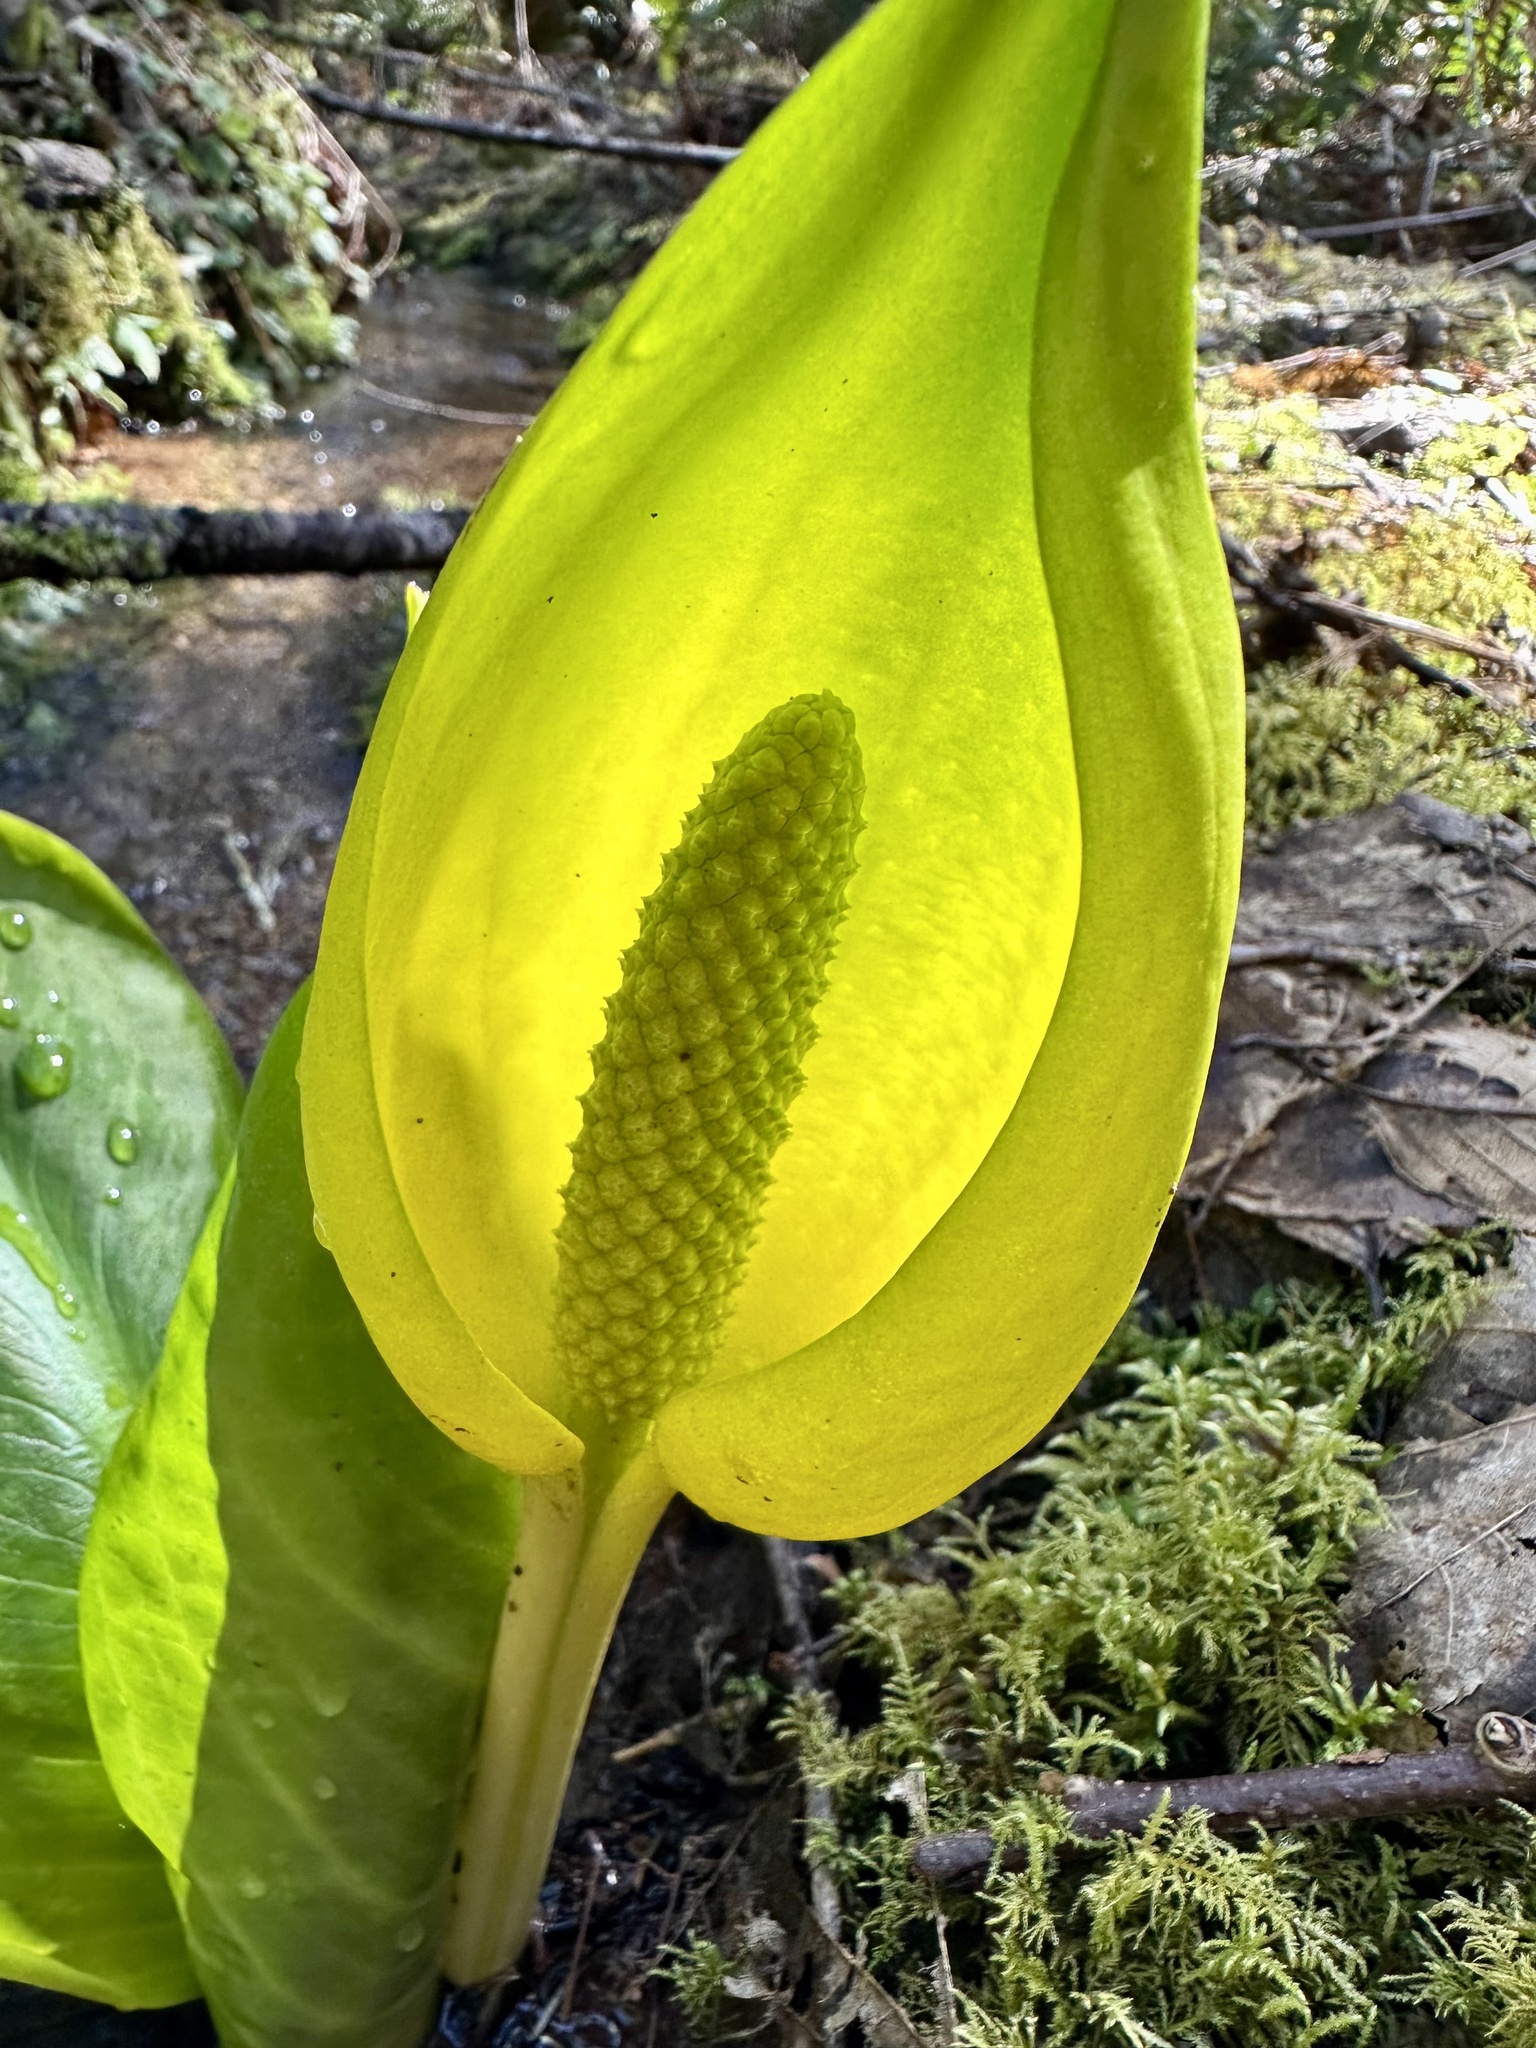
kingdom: Plantae
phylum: Tracheophyta
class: Liliopsida
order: Alismatales
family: Araceae
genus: Lysichiton
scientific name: Lysichiton americanus
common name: American skunk cabbage
